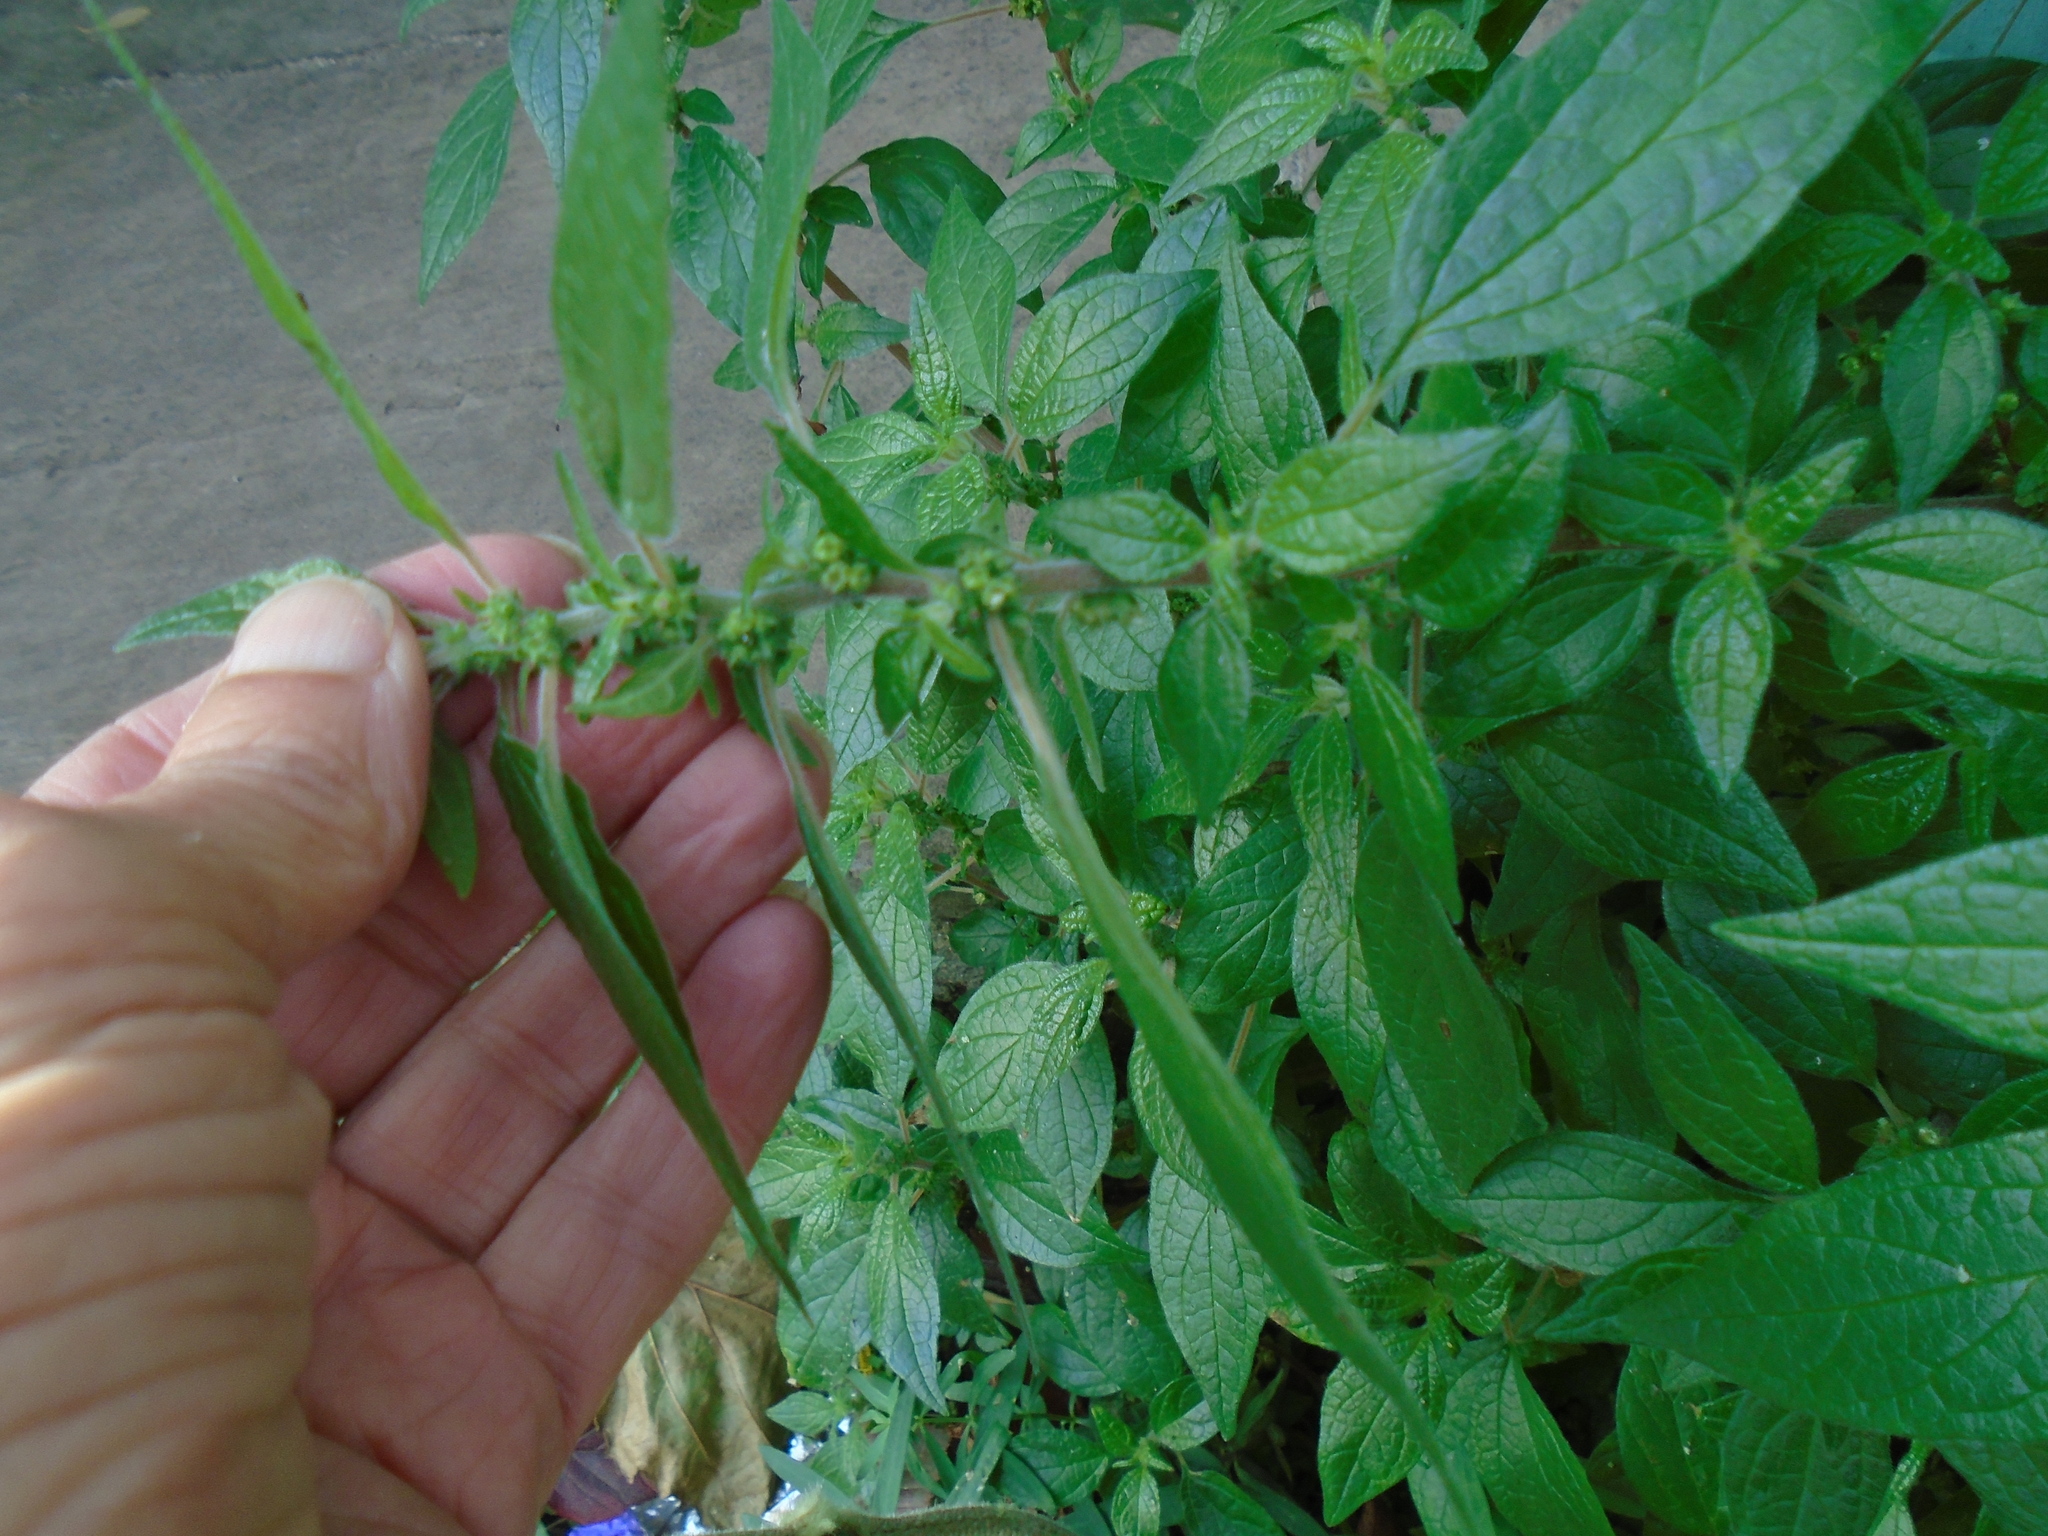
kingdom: Plantae
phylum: Tracheophyta
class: Magnoliopsida
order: Rosales
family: Urticaceae
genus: Parietaria
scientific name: Parietaria judaica
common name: Pellitory-of-the-wall
